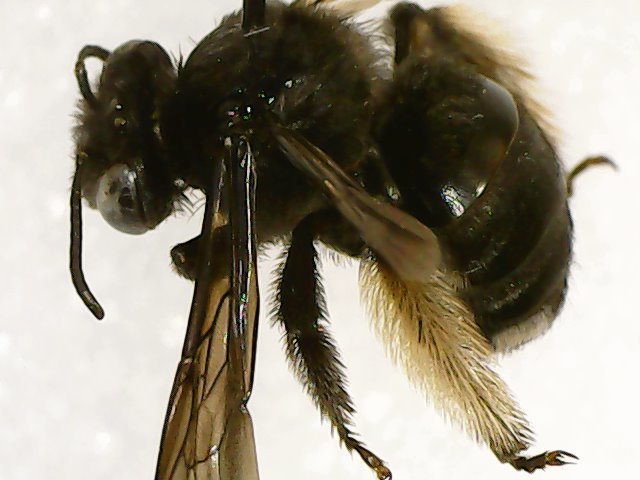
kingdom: Animalia
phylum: Arthropoda
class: Insecta
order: Hymenoptera
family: Apidae
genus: Melissodes
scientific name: Melissodes bimaculatus
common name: Two-spotted long-horned bee
